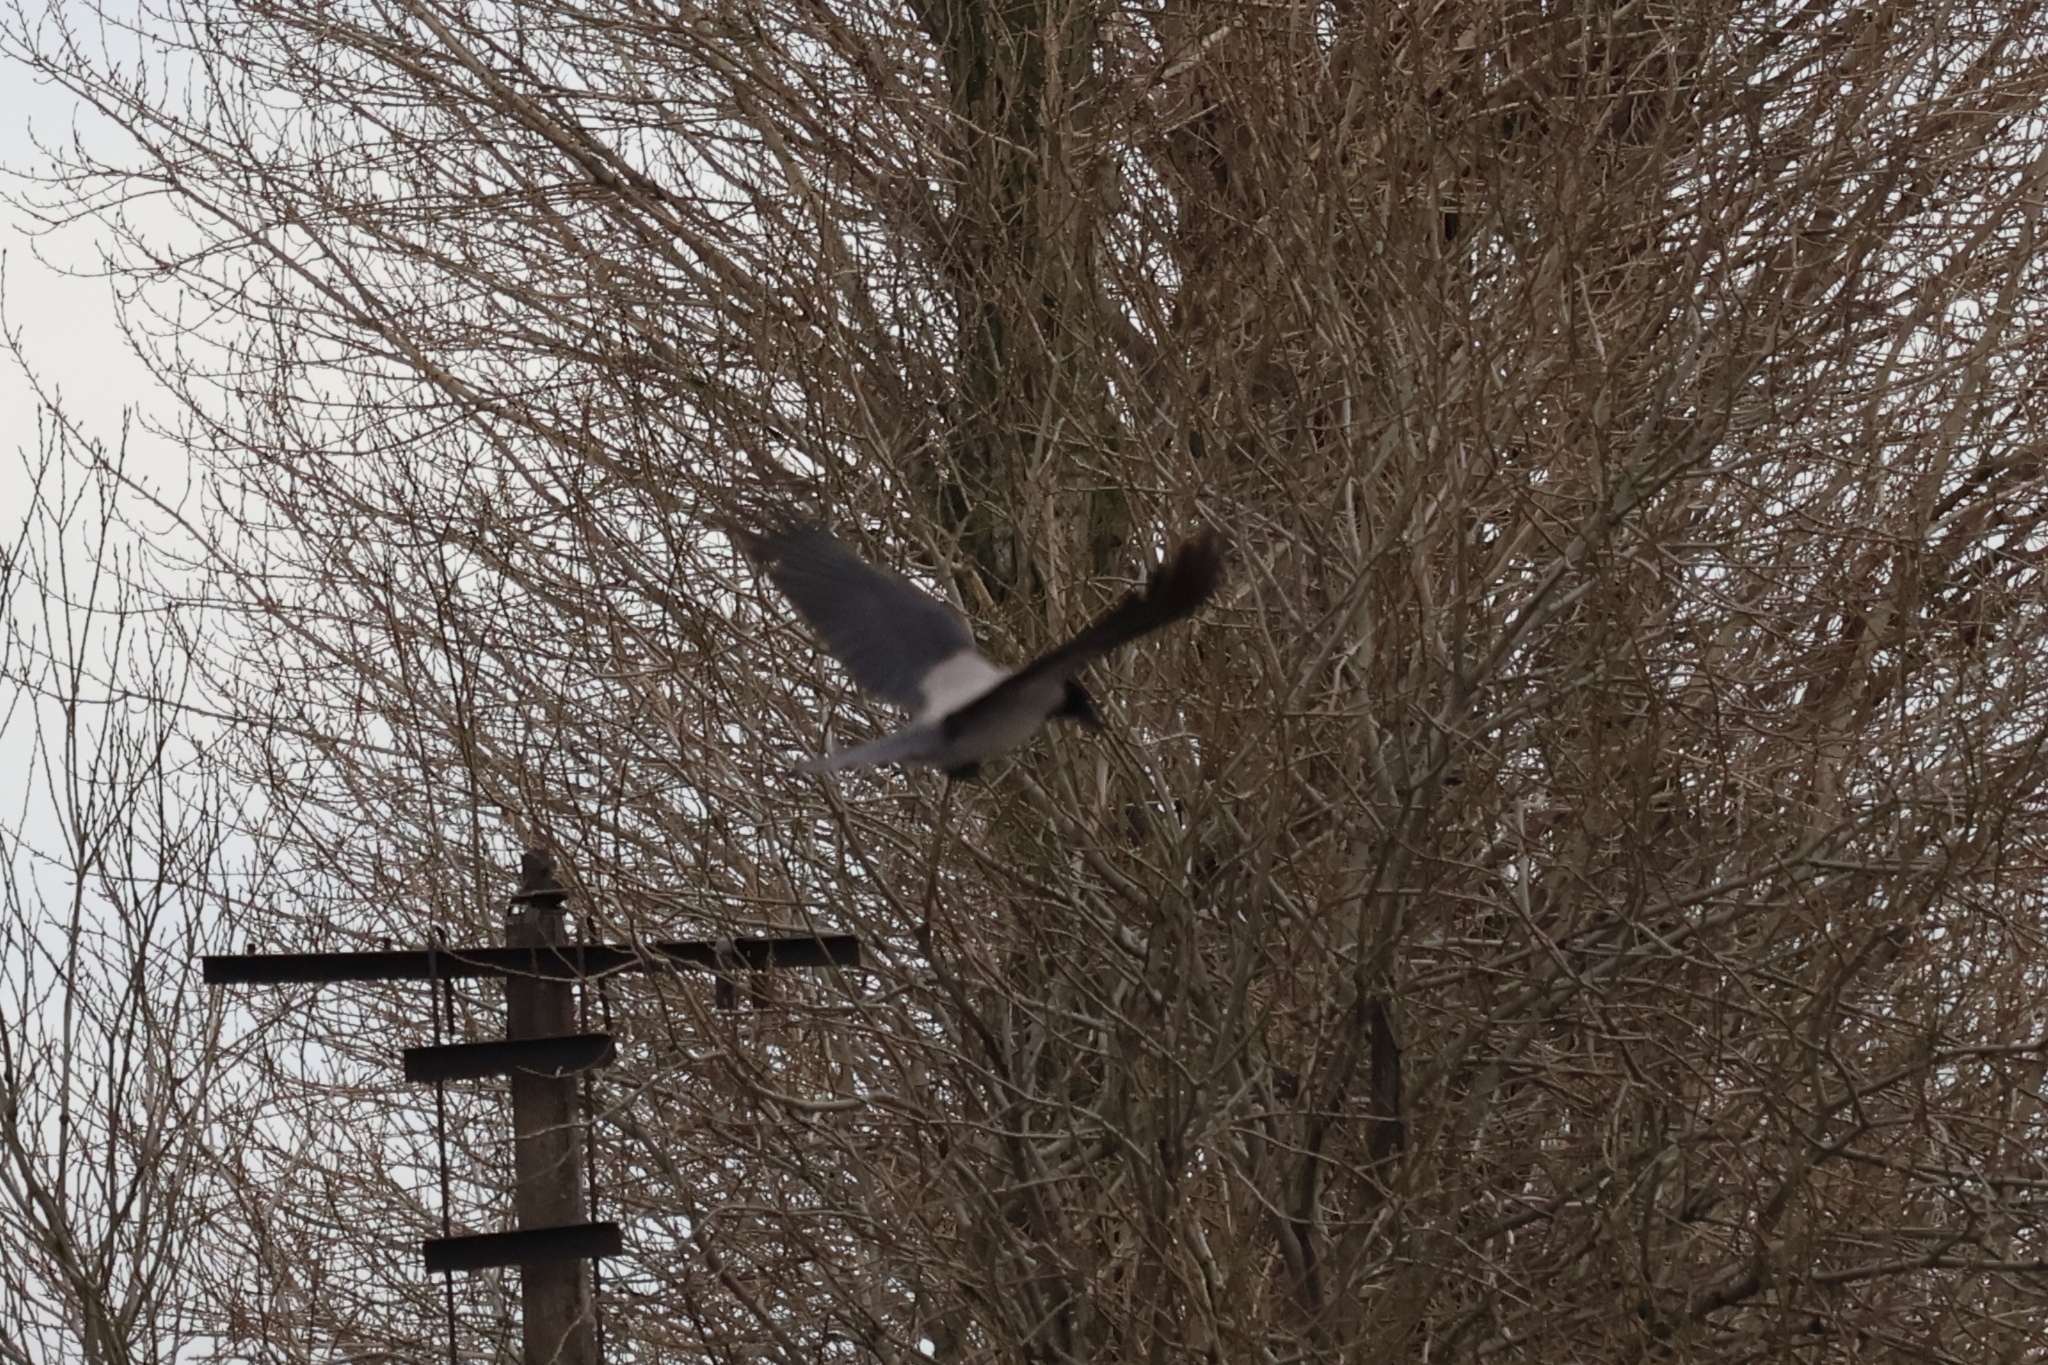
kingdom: Animalia
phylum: Chordata
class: Aves
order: Passeriformes
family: Corvidae
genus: Corvus
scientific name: Corvus cornix
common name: Hooded crow
